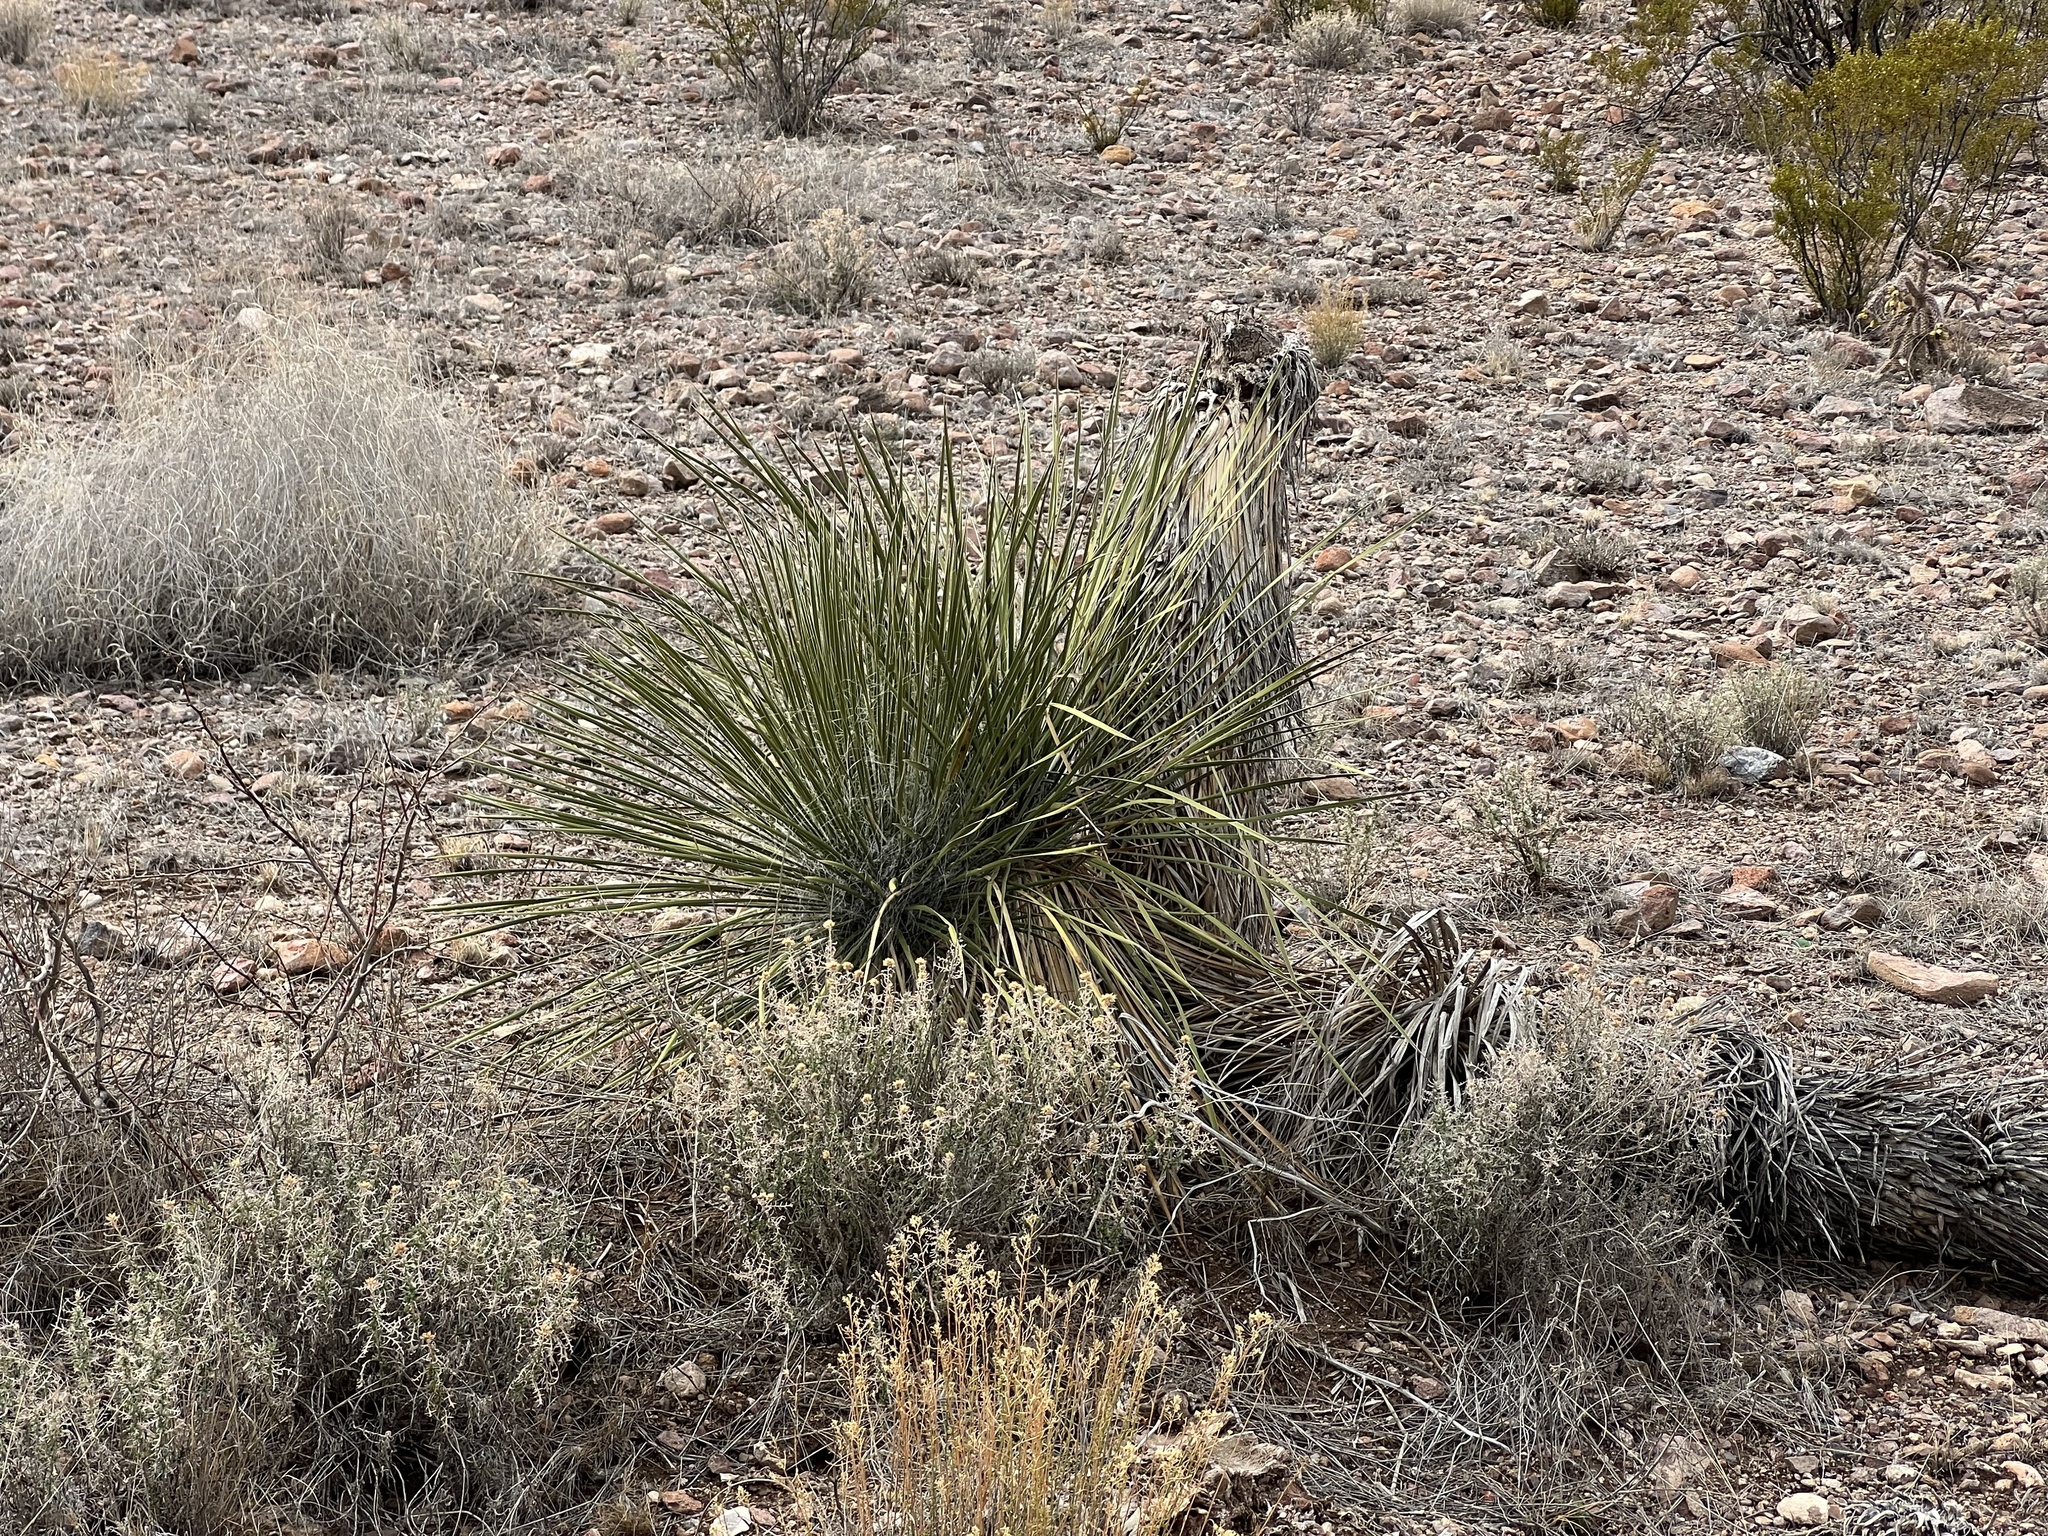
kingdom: Plantae
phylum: Tracheophyta
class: Liliopsida
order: Asparagales
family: Asparagaceae
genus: Yucca
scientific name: Yucca elata
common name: Palmella
